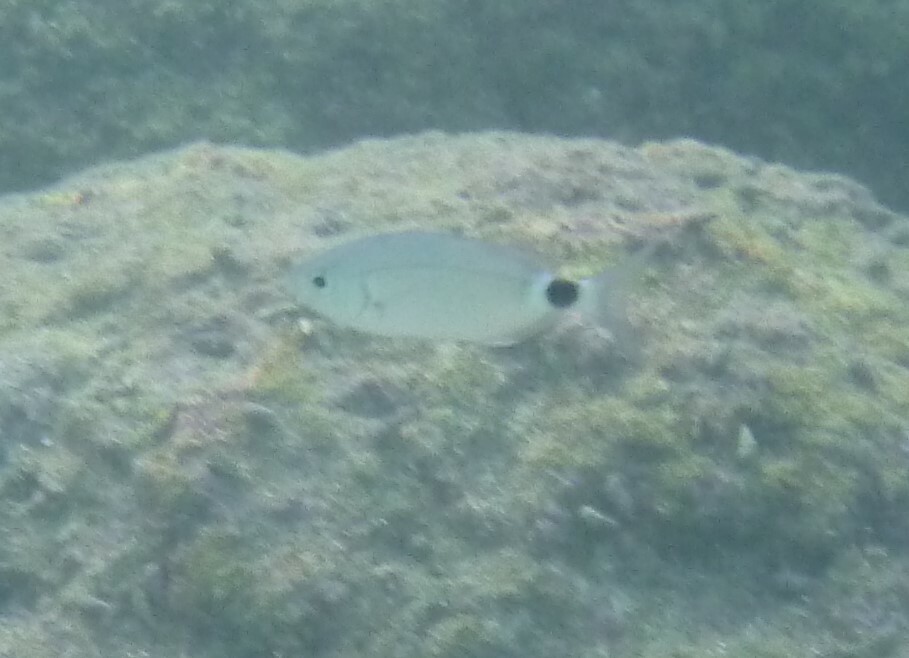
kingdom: Animalia
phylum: Chordata
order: Perciformes
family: Sparidae
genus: Oblada
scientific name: Oblada melanura
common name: Saddled seabream
